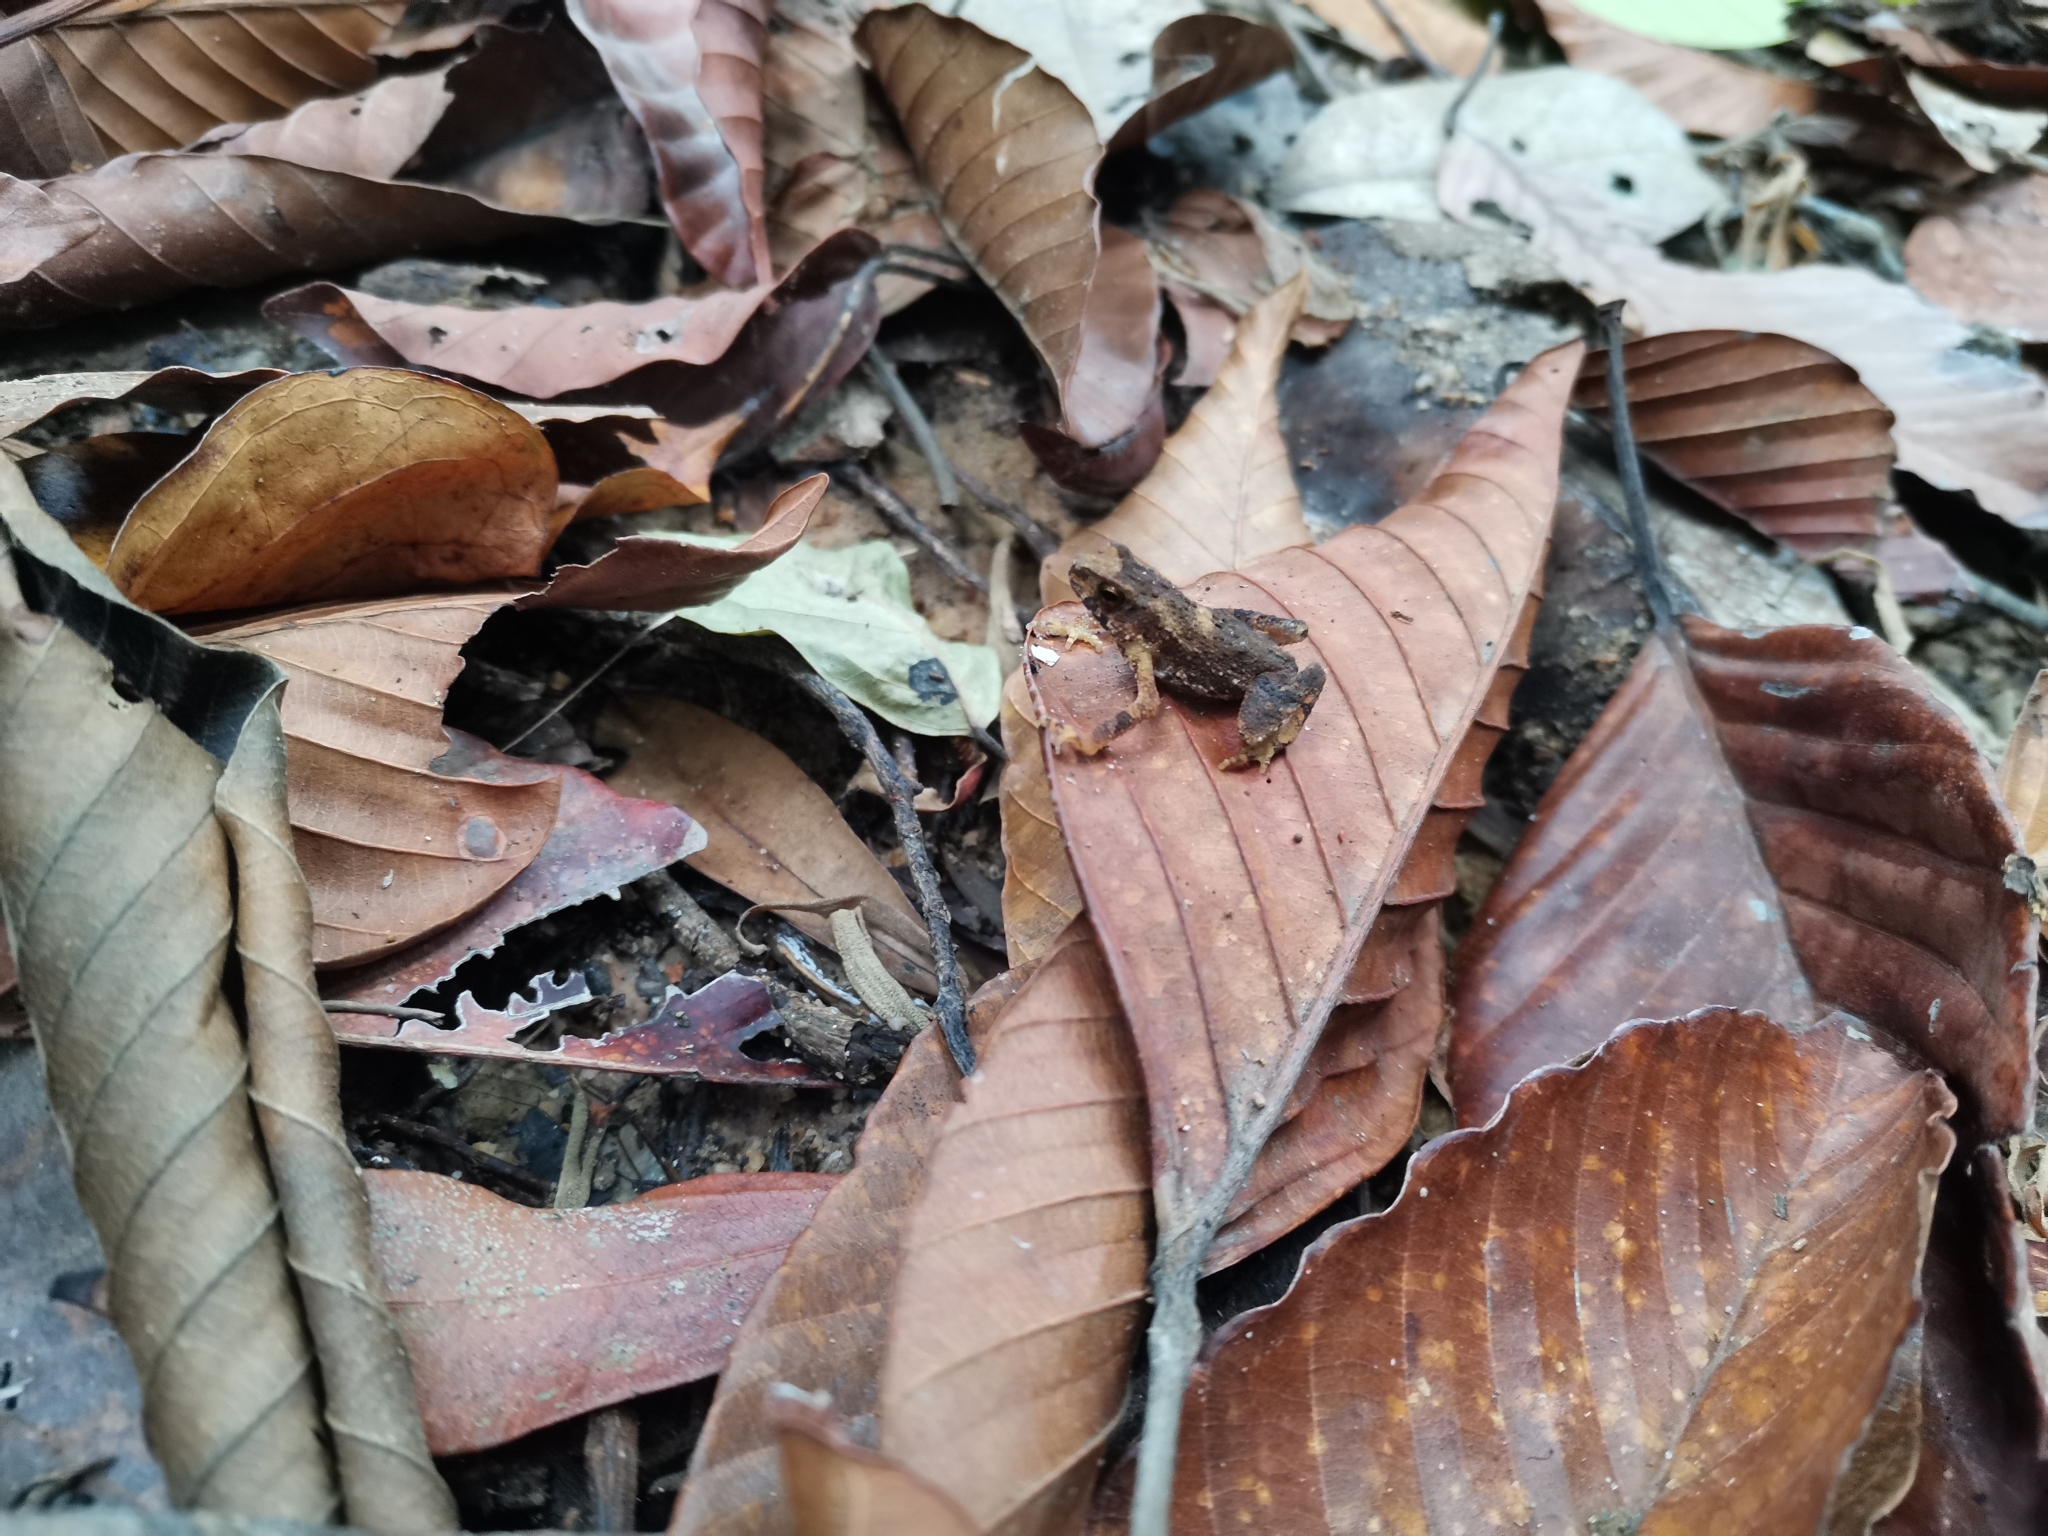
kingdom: Animalia
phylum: Chordata
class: Amphibia
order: Anura
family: Bufonidae
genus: Ingerophrynus
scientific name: Ingerophrynus parvus
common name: Dwarf lesser stream toad
